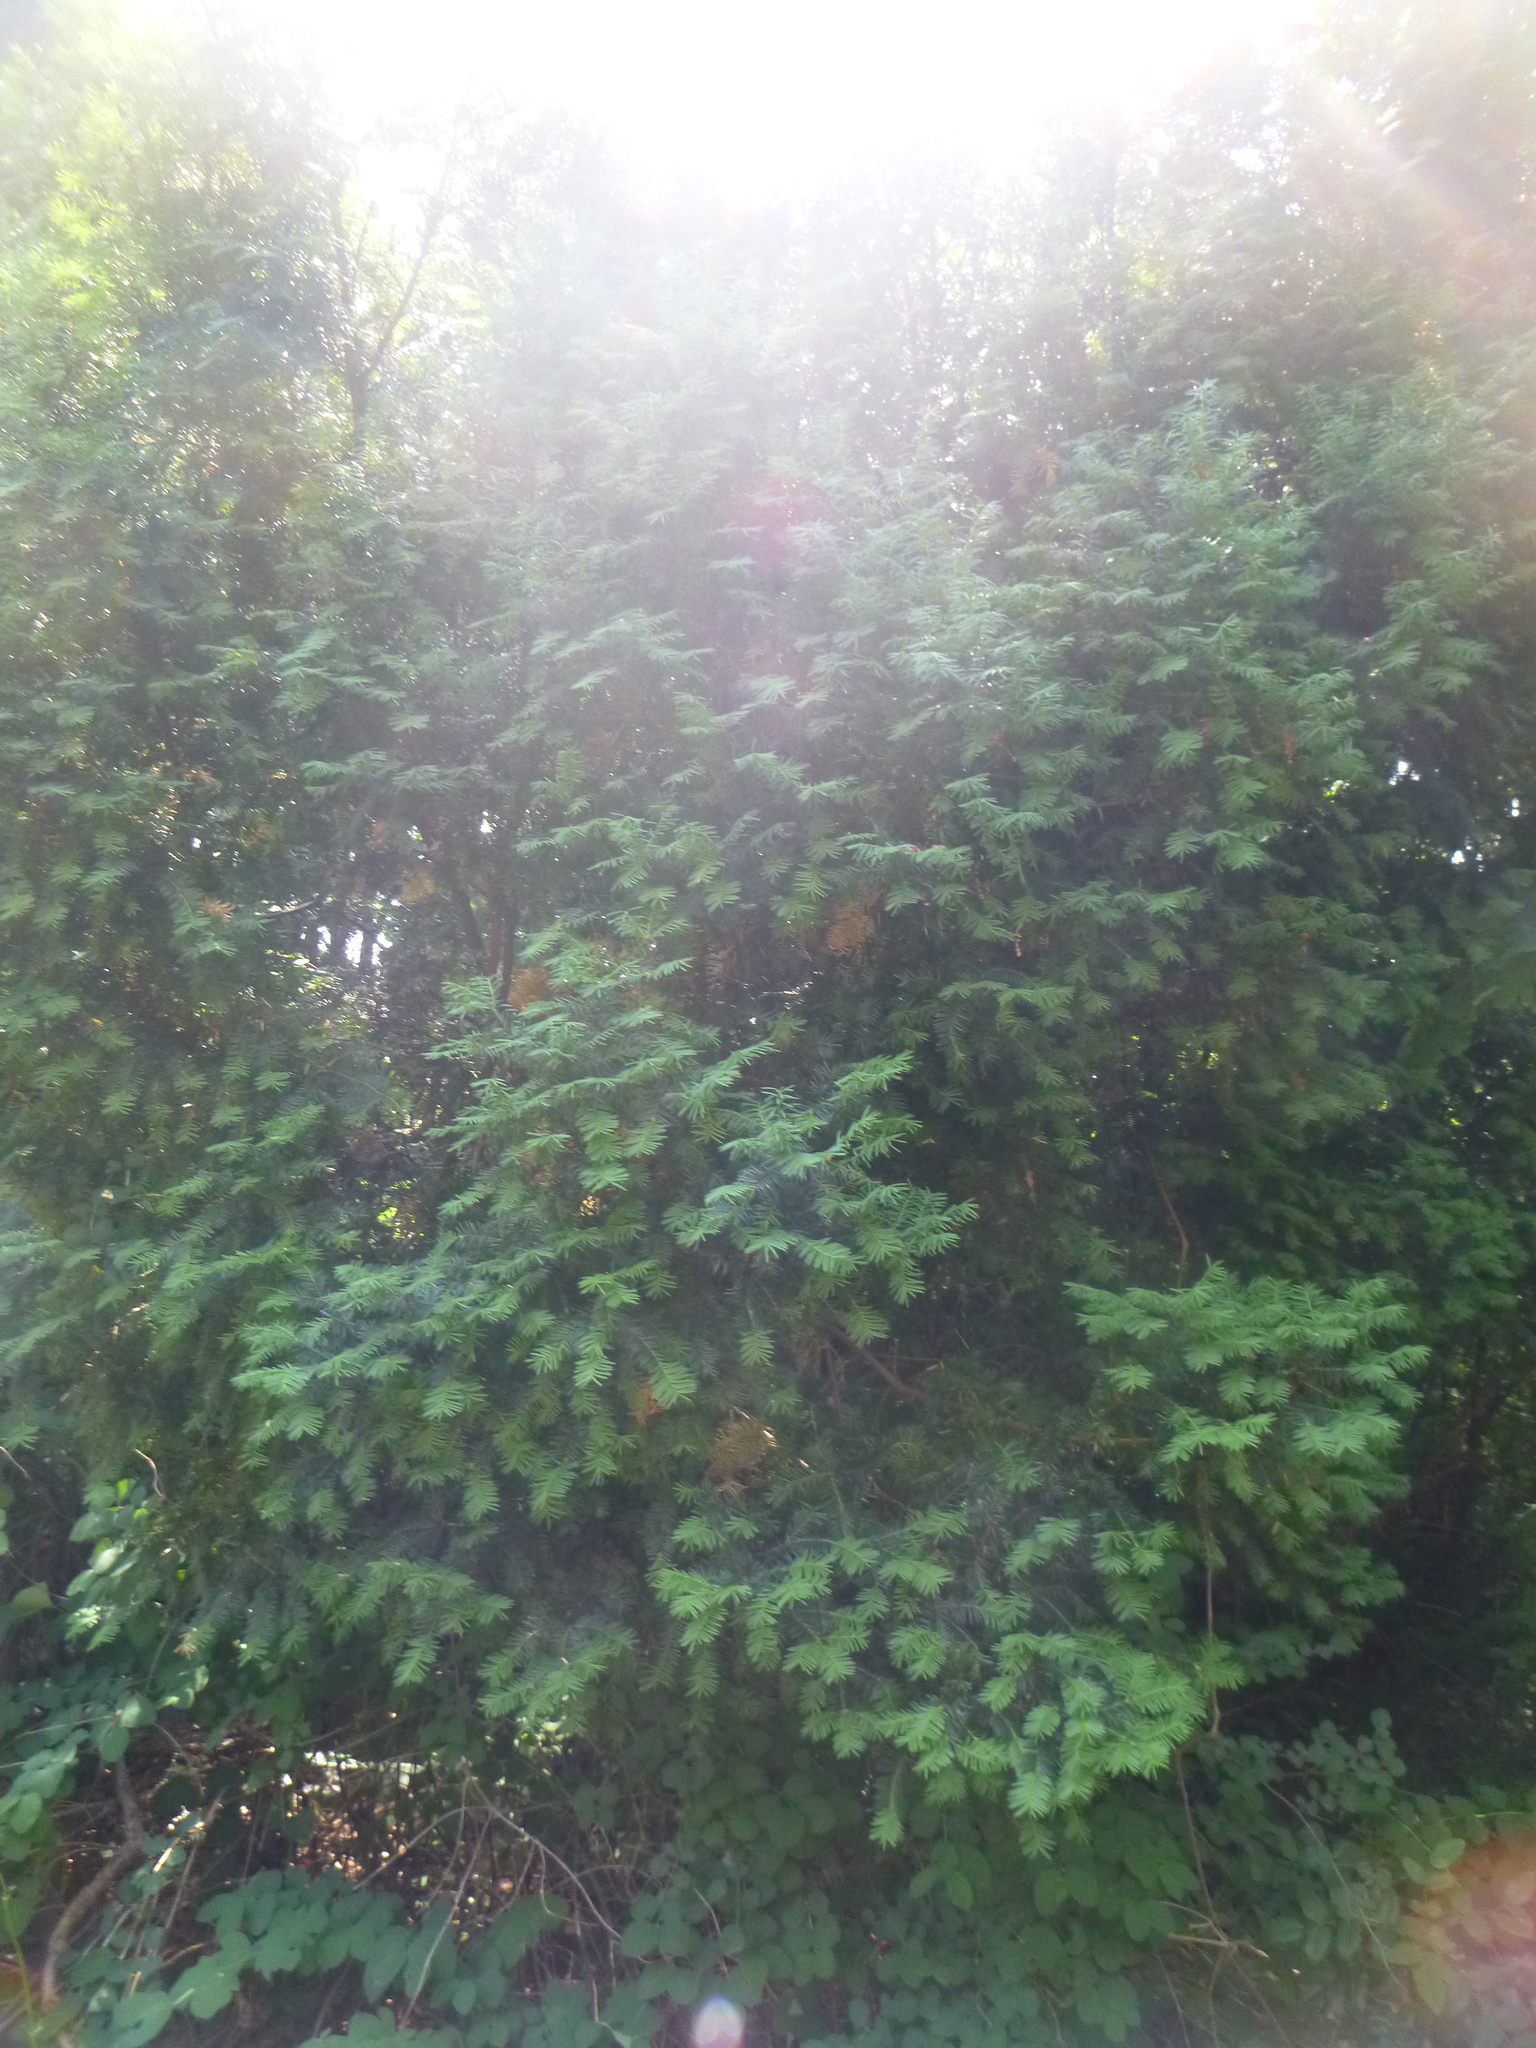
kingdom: Plantae
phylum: Tracheophyta
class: Pinopsida
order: Pinales
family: Taxaceae
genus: Taxus
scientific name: Taxus baccata
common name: Yew
